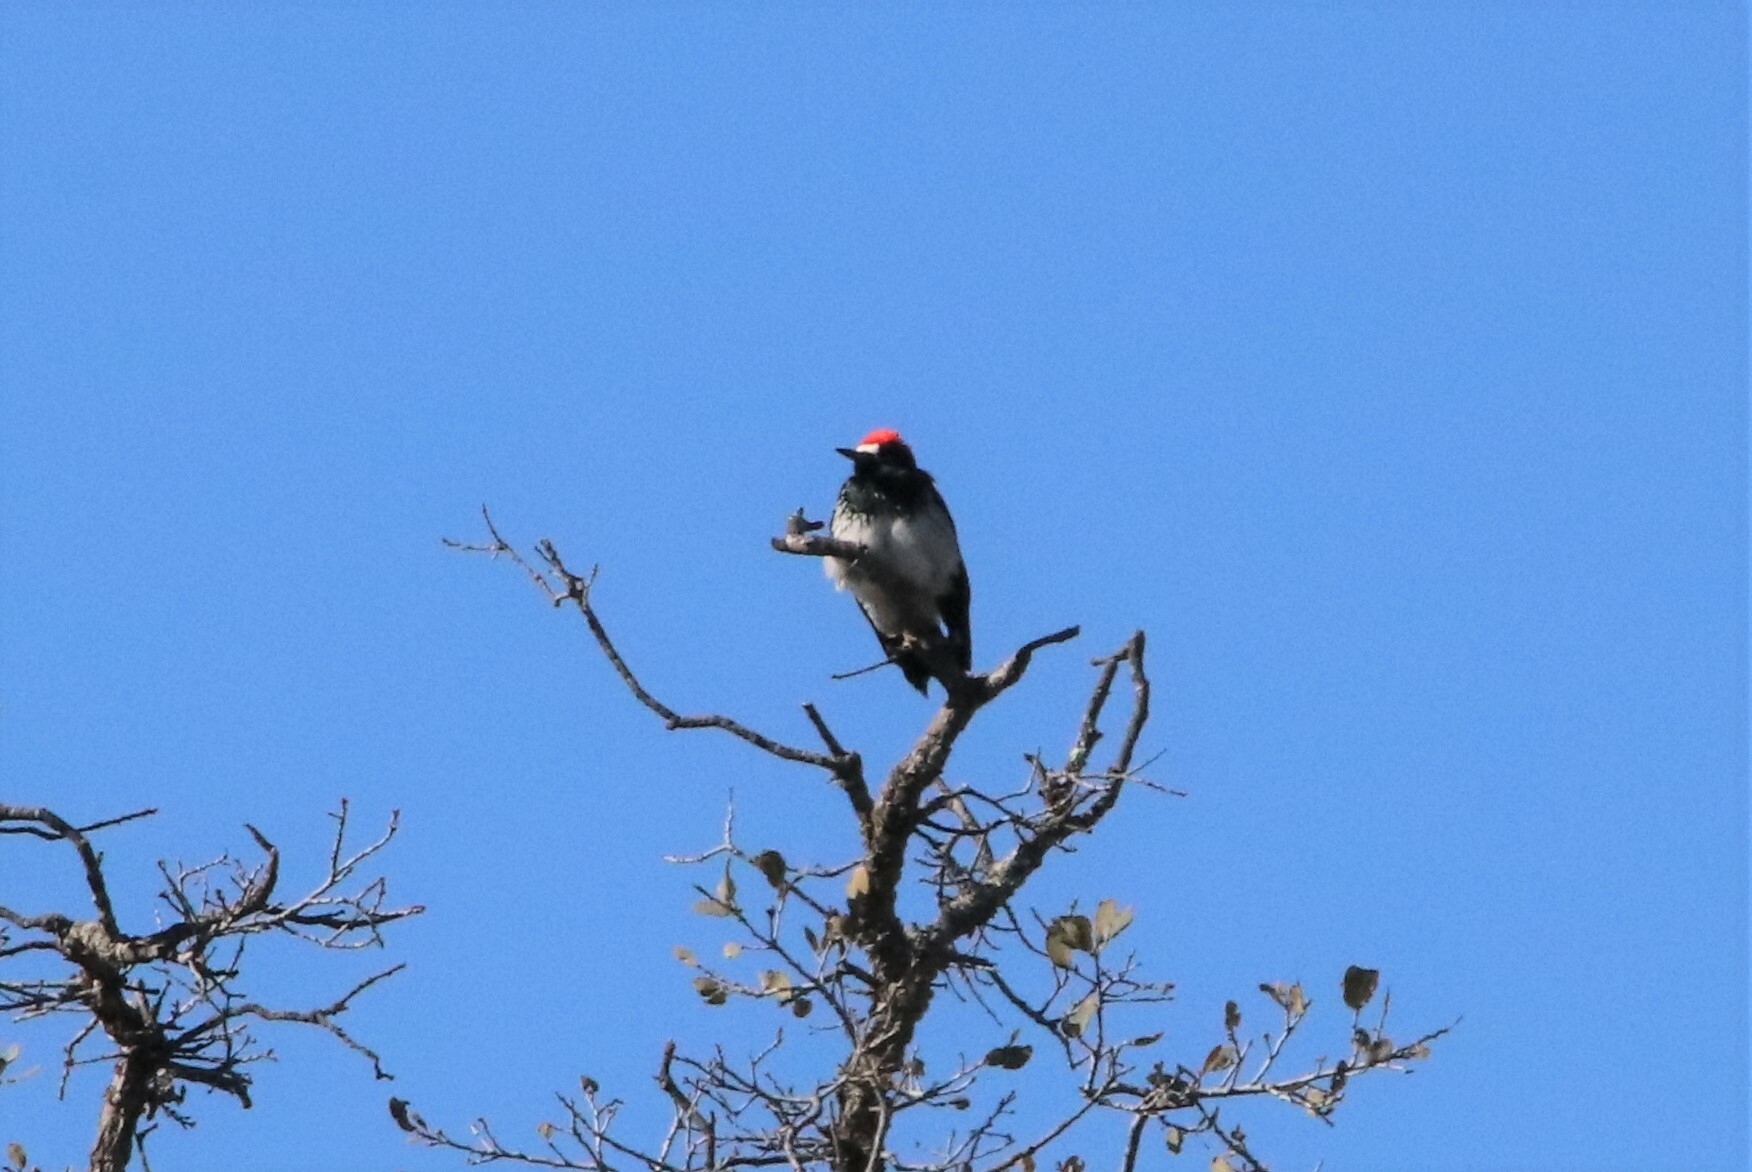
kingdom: Animalia
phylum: Chordata
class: Aves
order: Piciformes
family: Picidae
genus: Melanerpes
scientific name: Melanerpes formicivorus
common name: Acorn woodpecker
